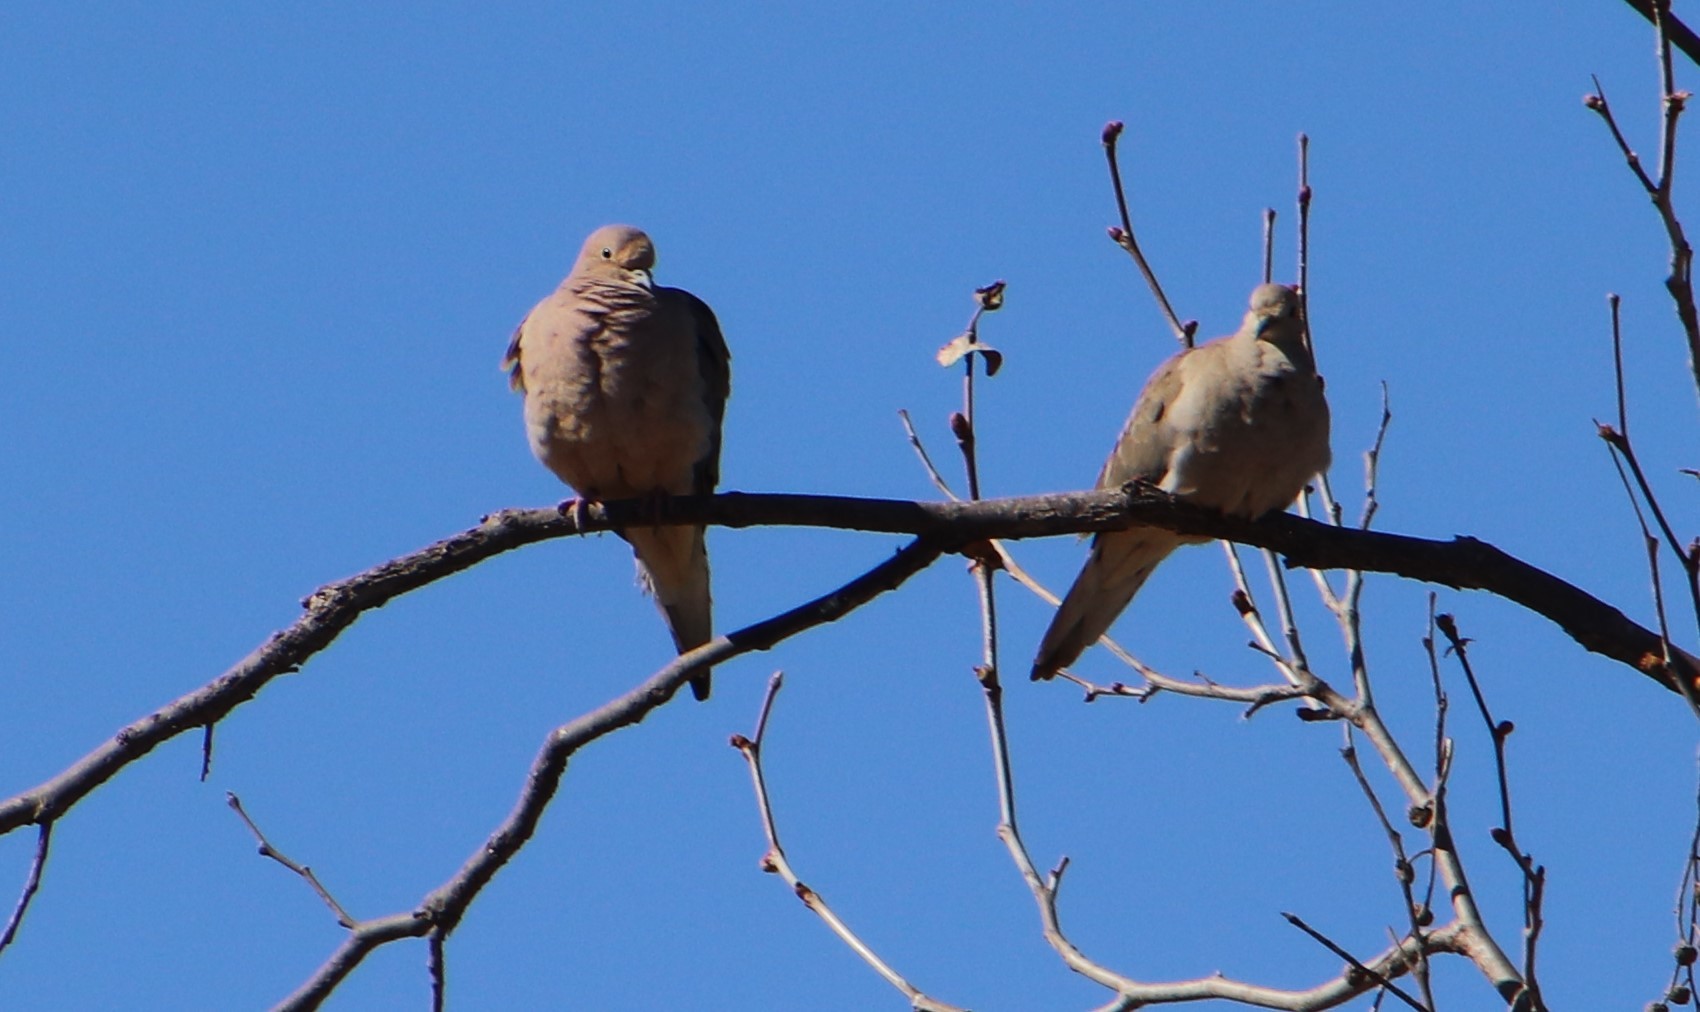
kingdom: Animalia
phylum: Chordata
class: Aves
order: Columbiformes
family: Columbidae
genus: Zenaida
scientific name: Zenaida macroura
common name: Mourning dove
